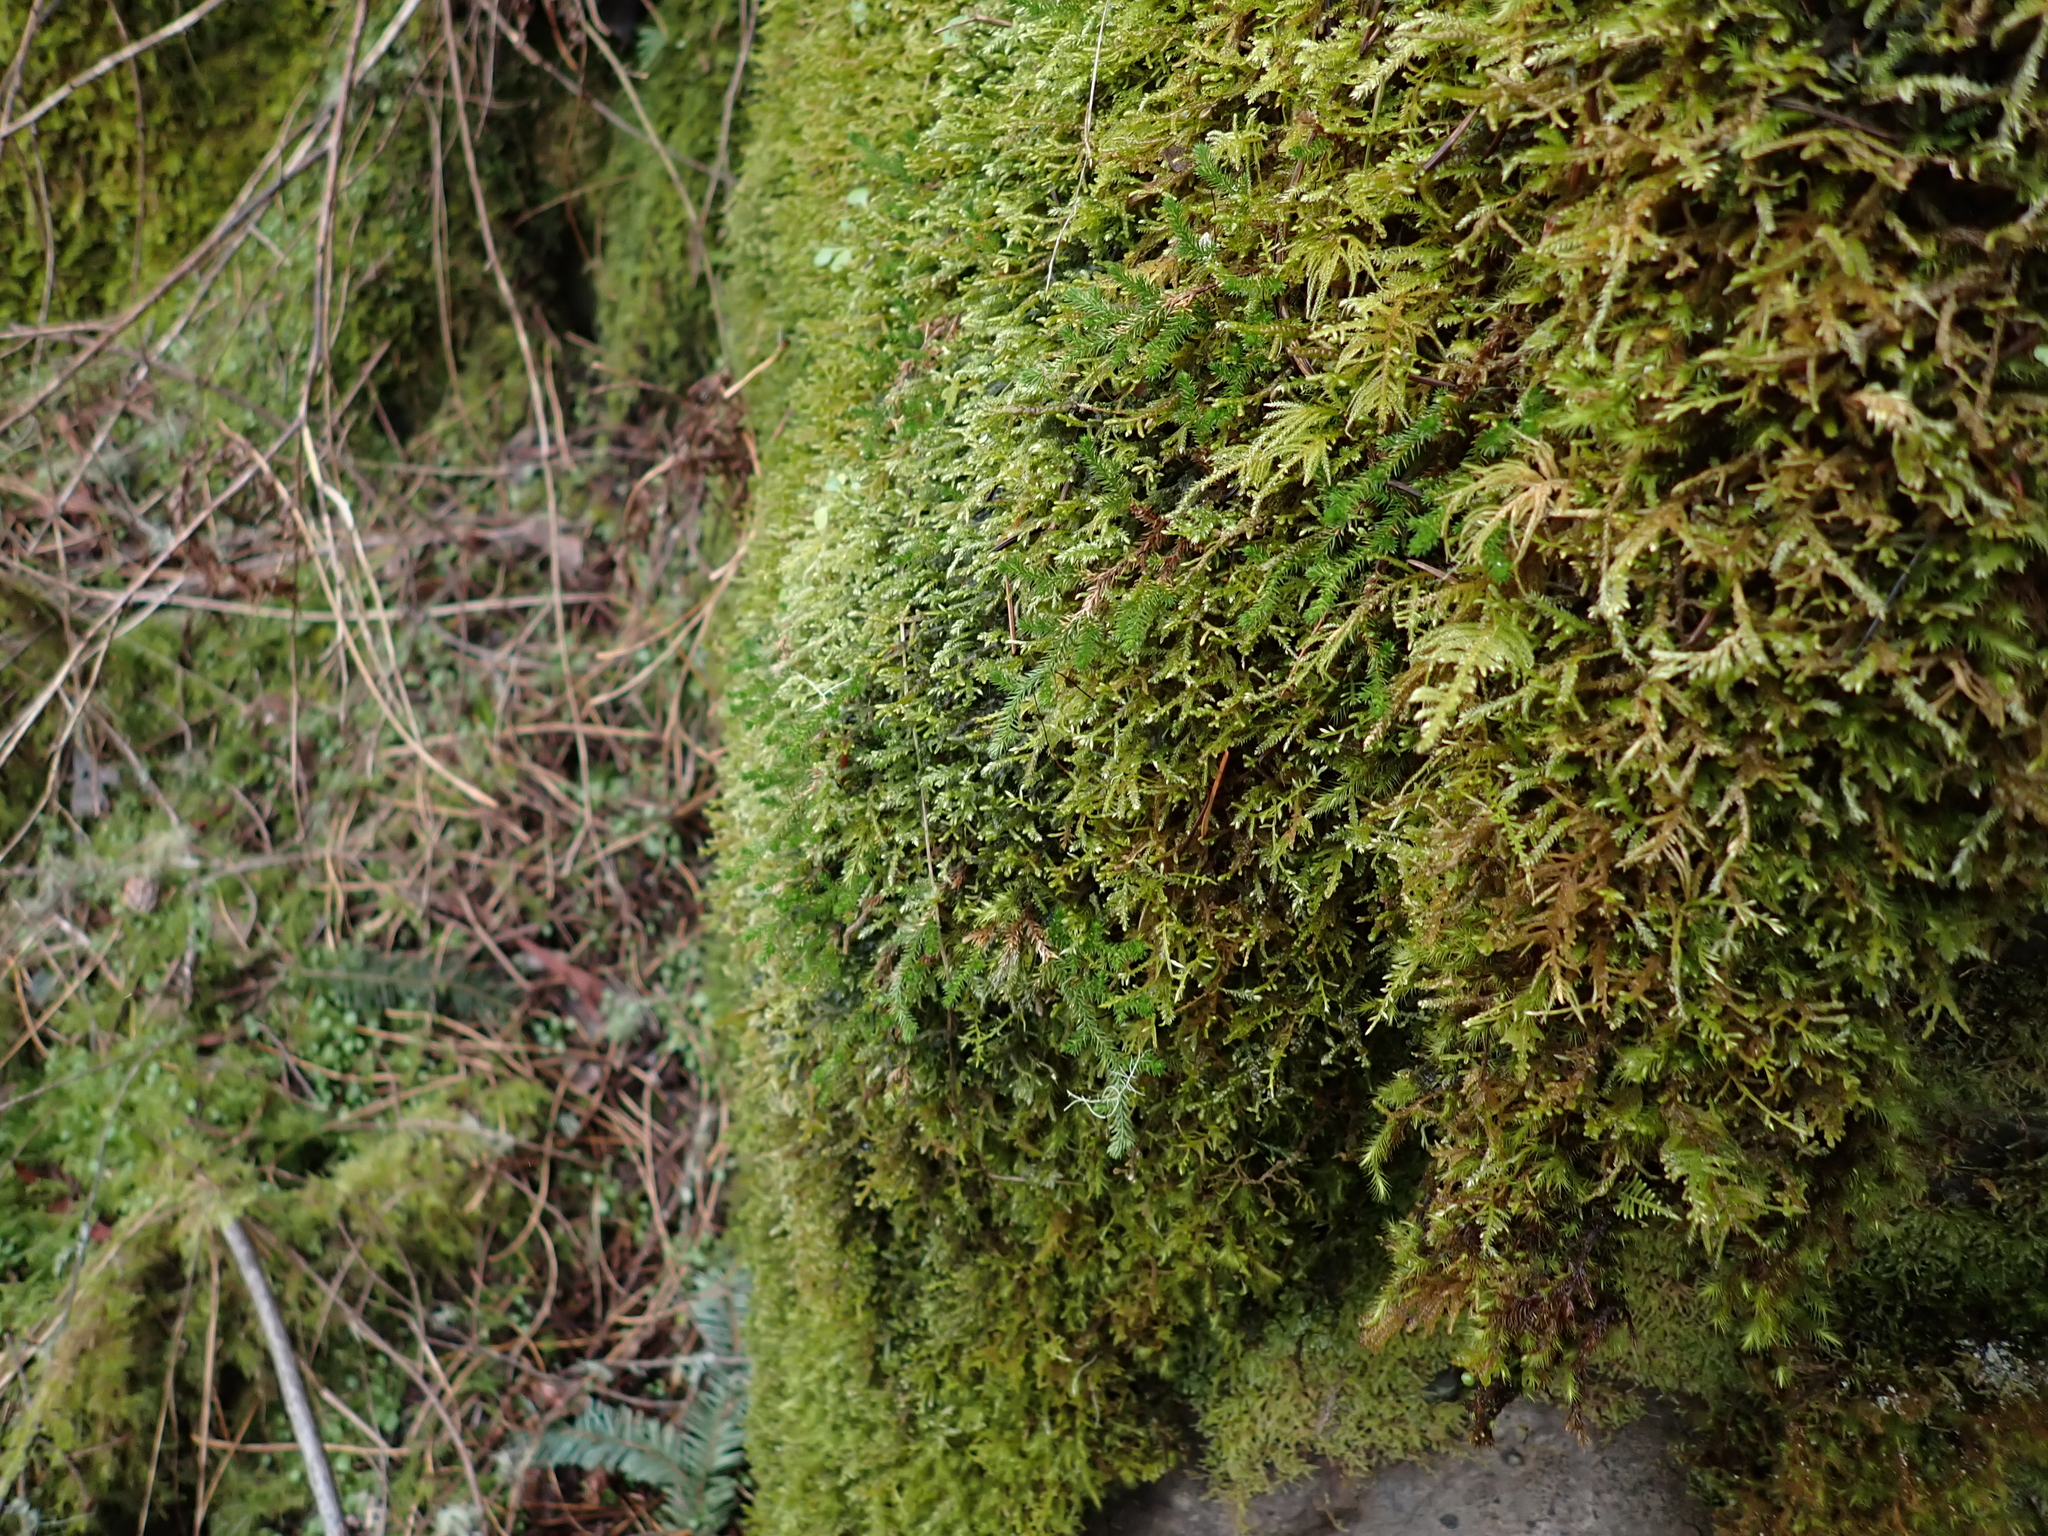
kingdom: Plantae
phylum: Tracheophyta
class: Lycopodiopsida
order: Selaginellales
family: Selaginellaceae
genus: Selaginella
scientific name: Selaginella wallacei
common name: Wallace's selaginella
